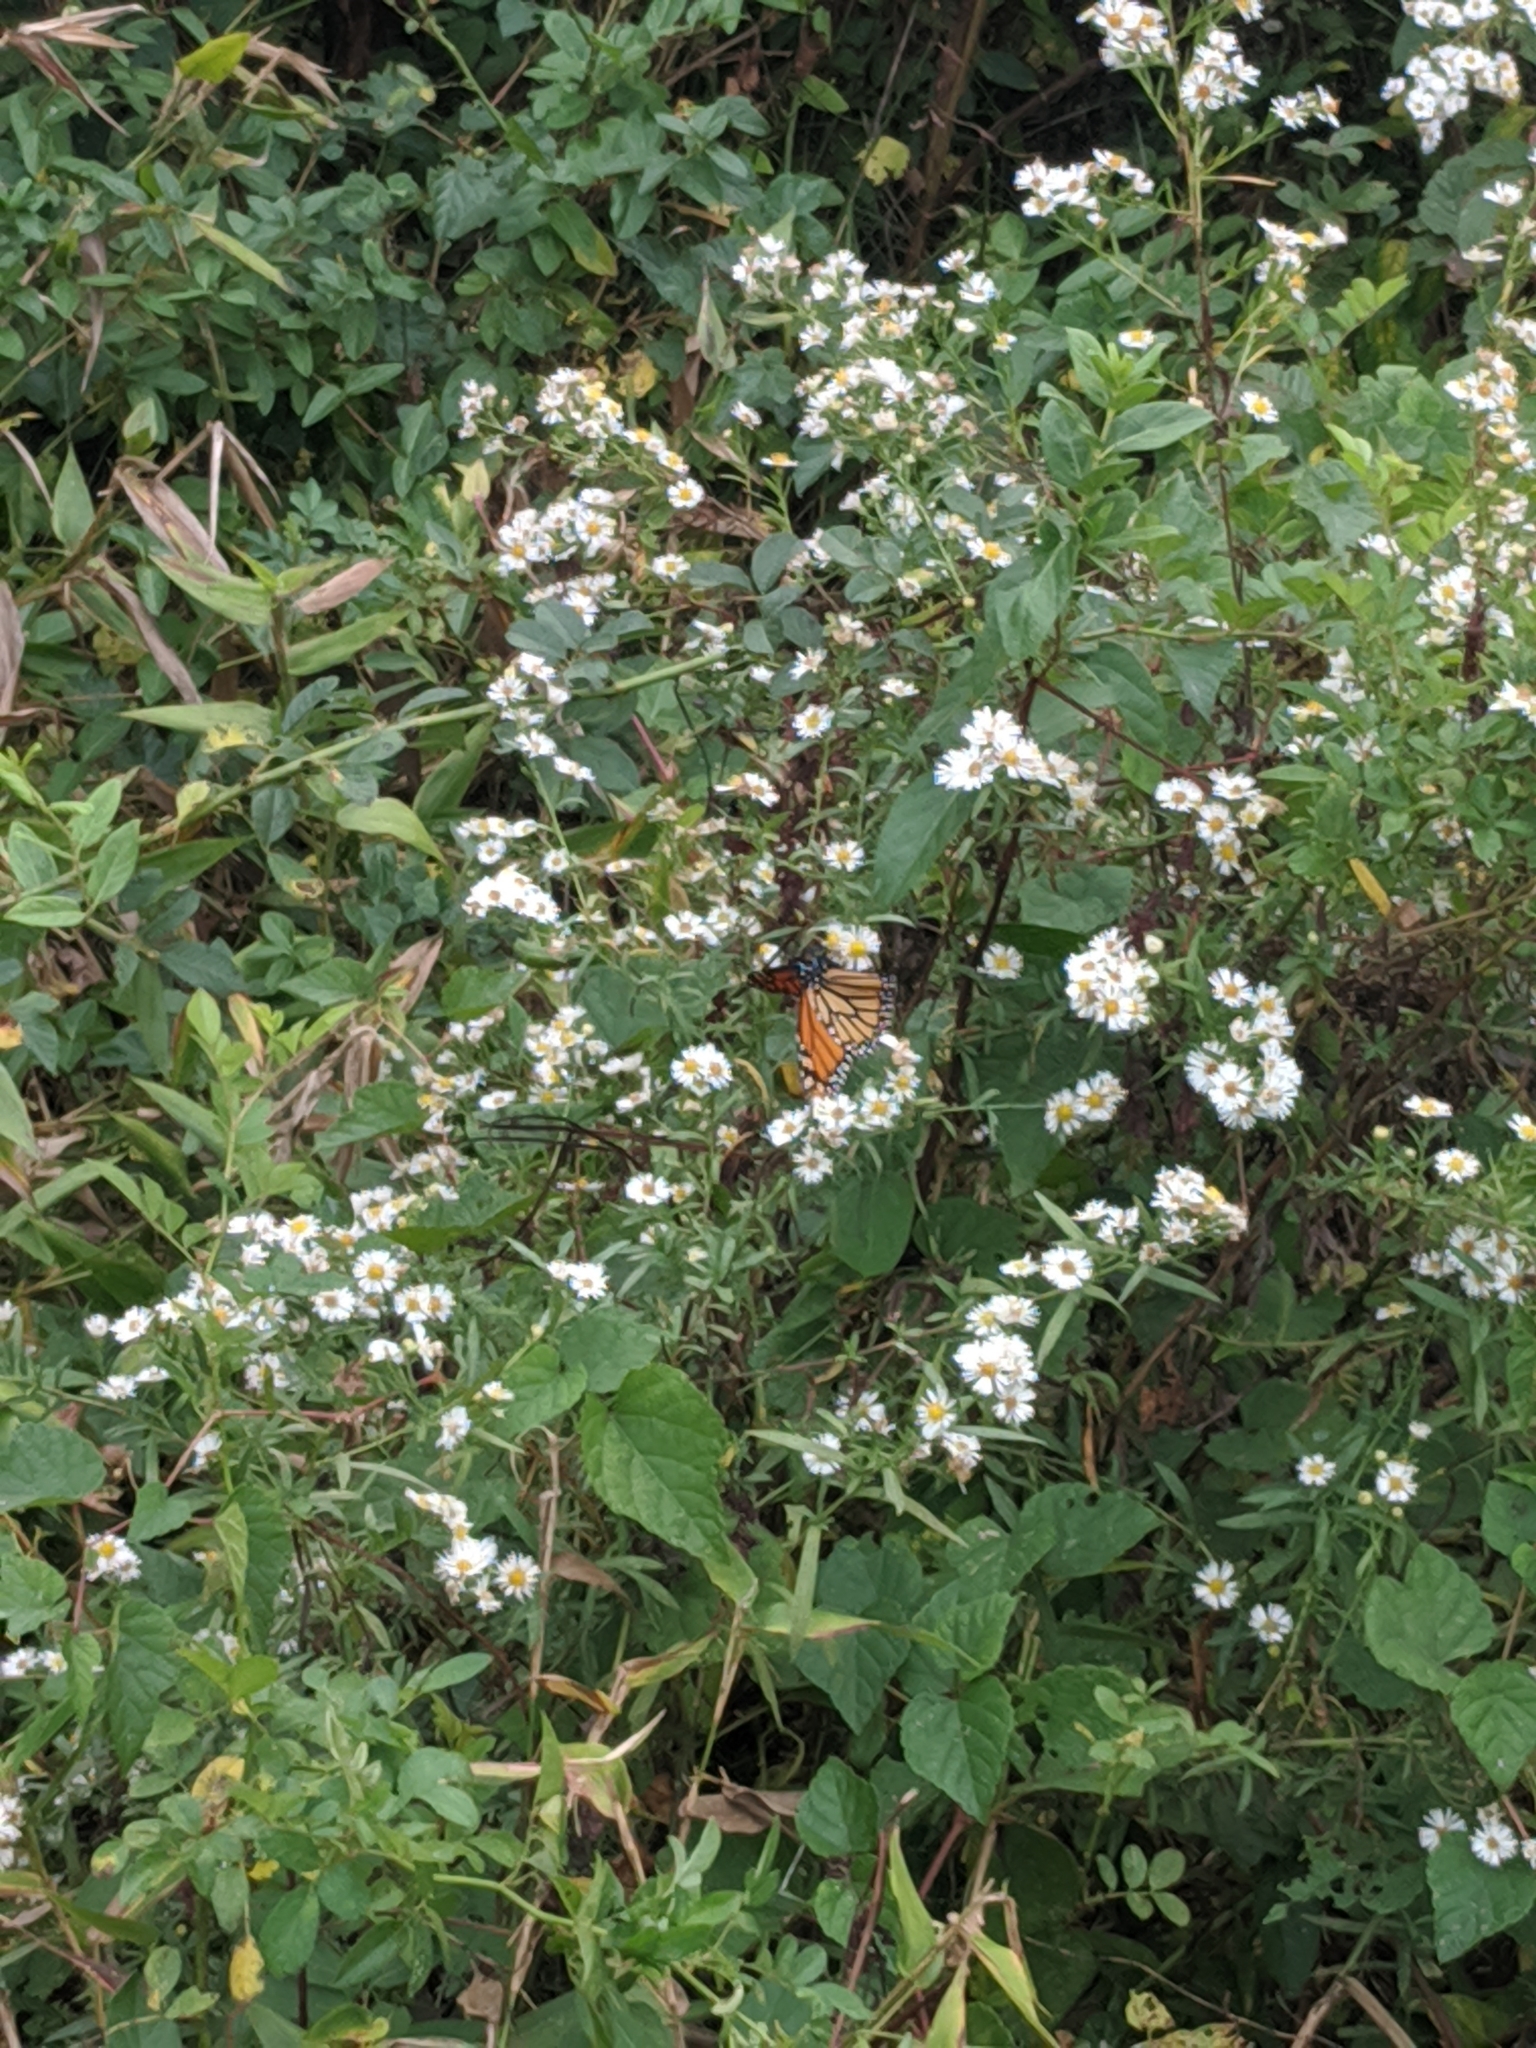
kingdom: Animalia
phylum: Arthropoda
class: Insecta
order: Lepidoptera
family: Nymphalidae
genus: Danaus
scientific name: Danaus plexippus
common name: Monarch
